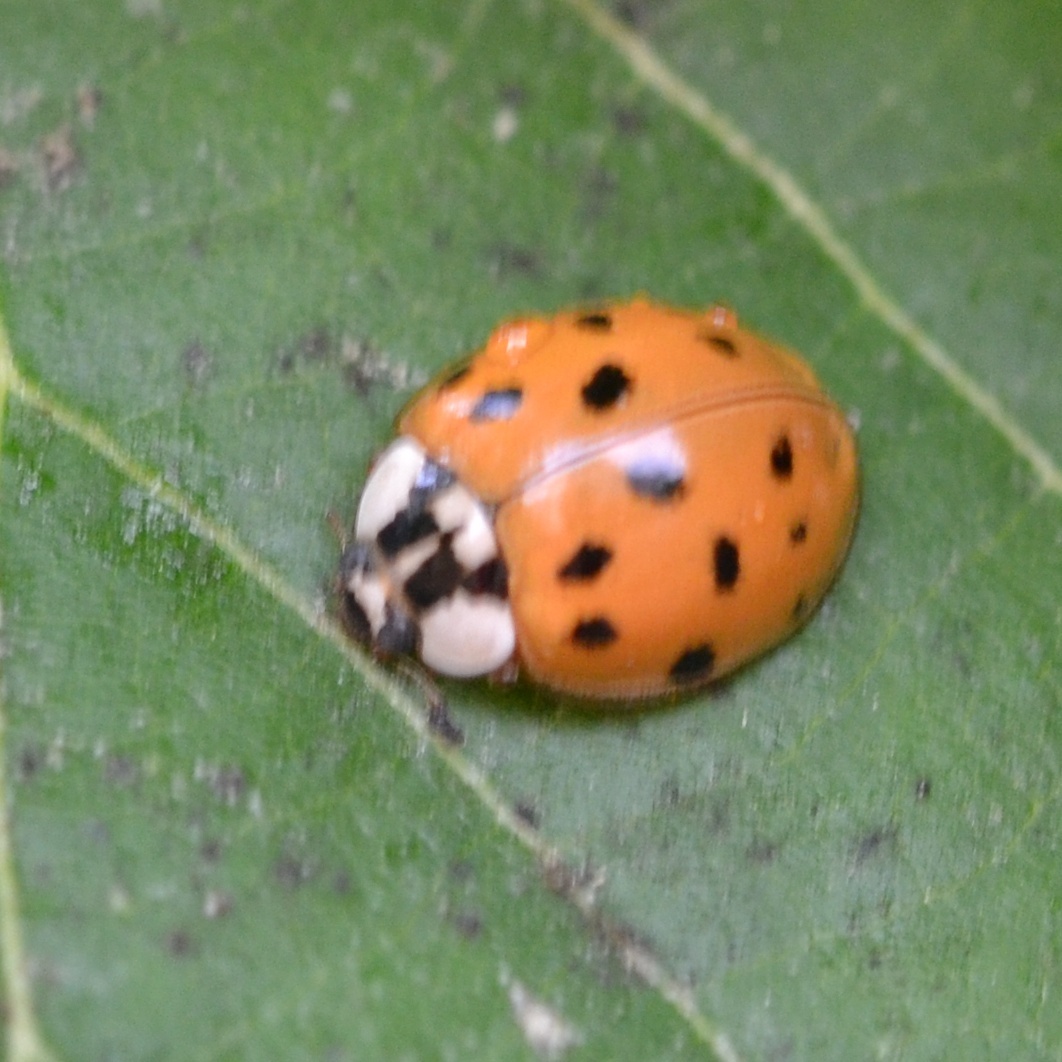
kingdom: Animalia
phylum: Arthropoda
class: Insecta
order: Coleoptera
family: Coccinellidae
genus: Harmonia
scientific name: Harmonia axyridis
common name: Harlequin ladybird
